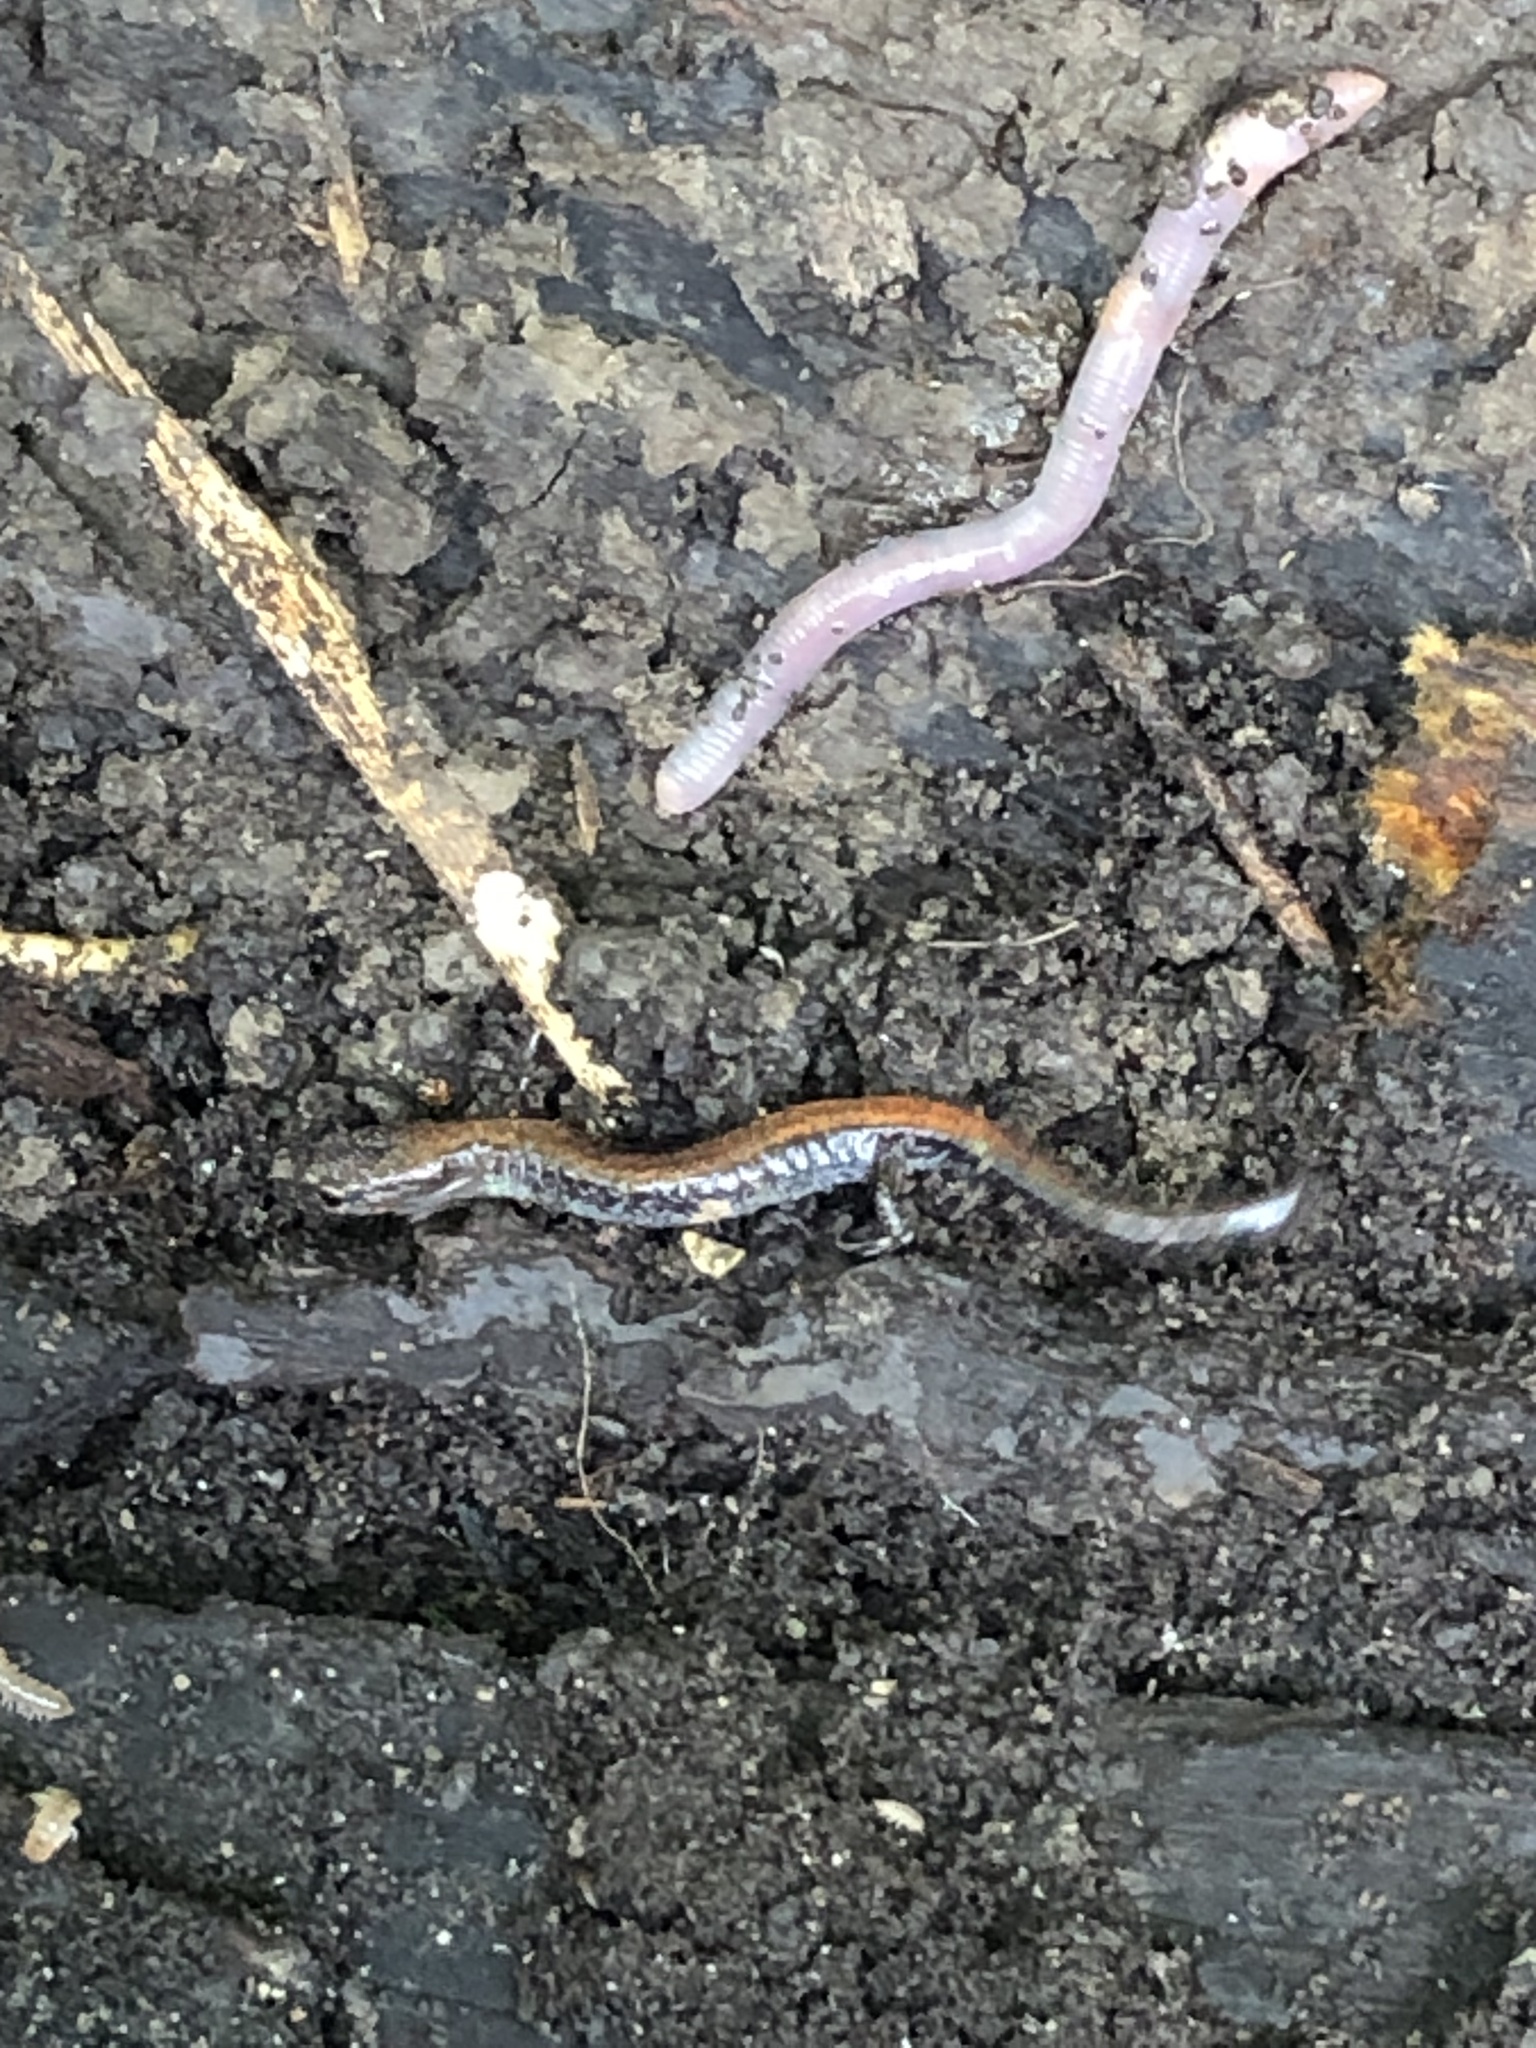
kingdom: Animalia
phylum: Chordata
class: Amphibia
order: Caudata
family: Plethodontidae
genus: Plethodon
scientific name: Plethodon cinereus
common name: Redback salamander
